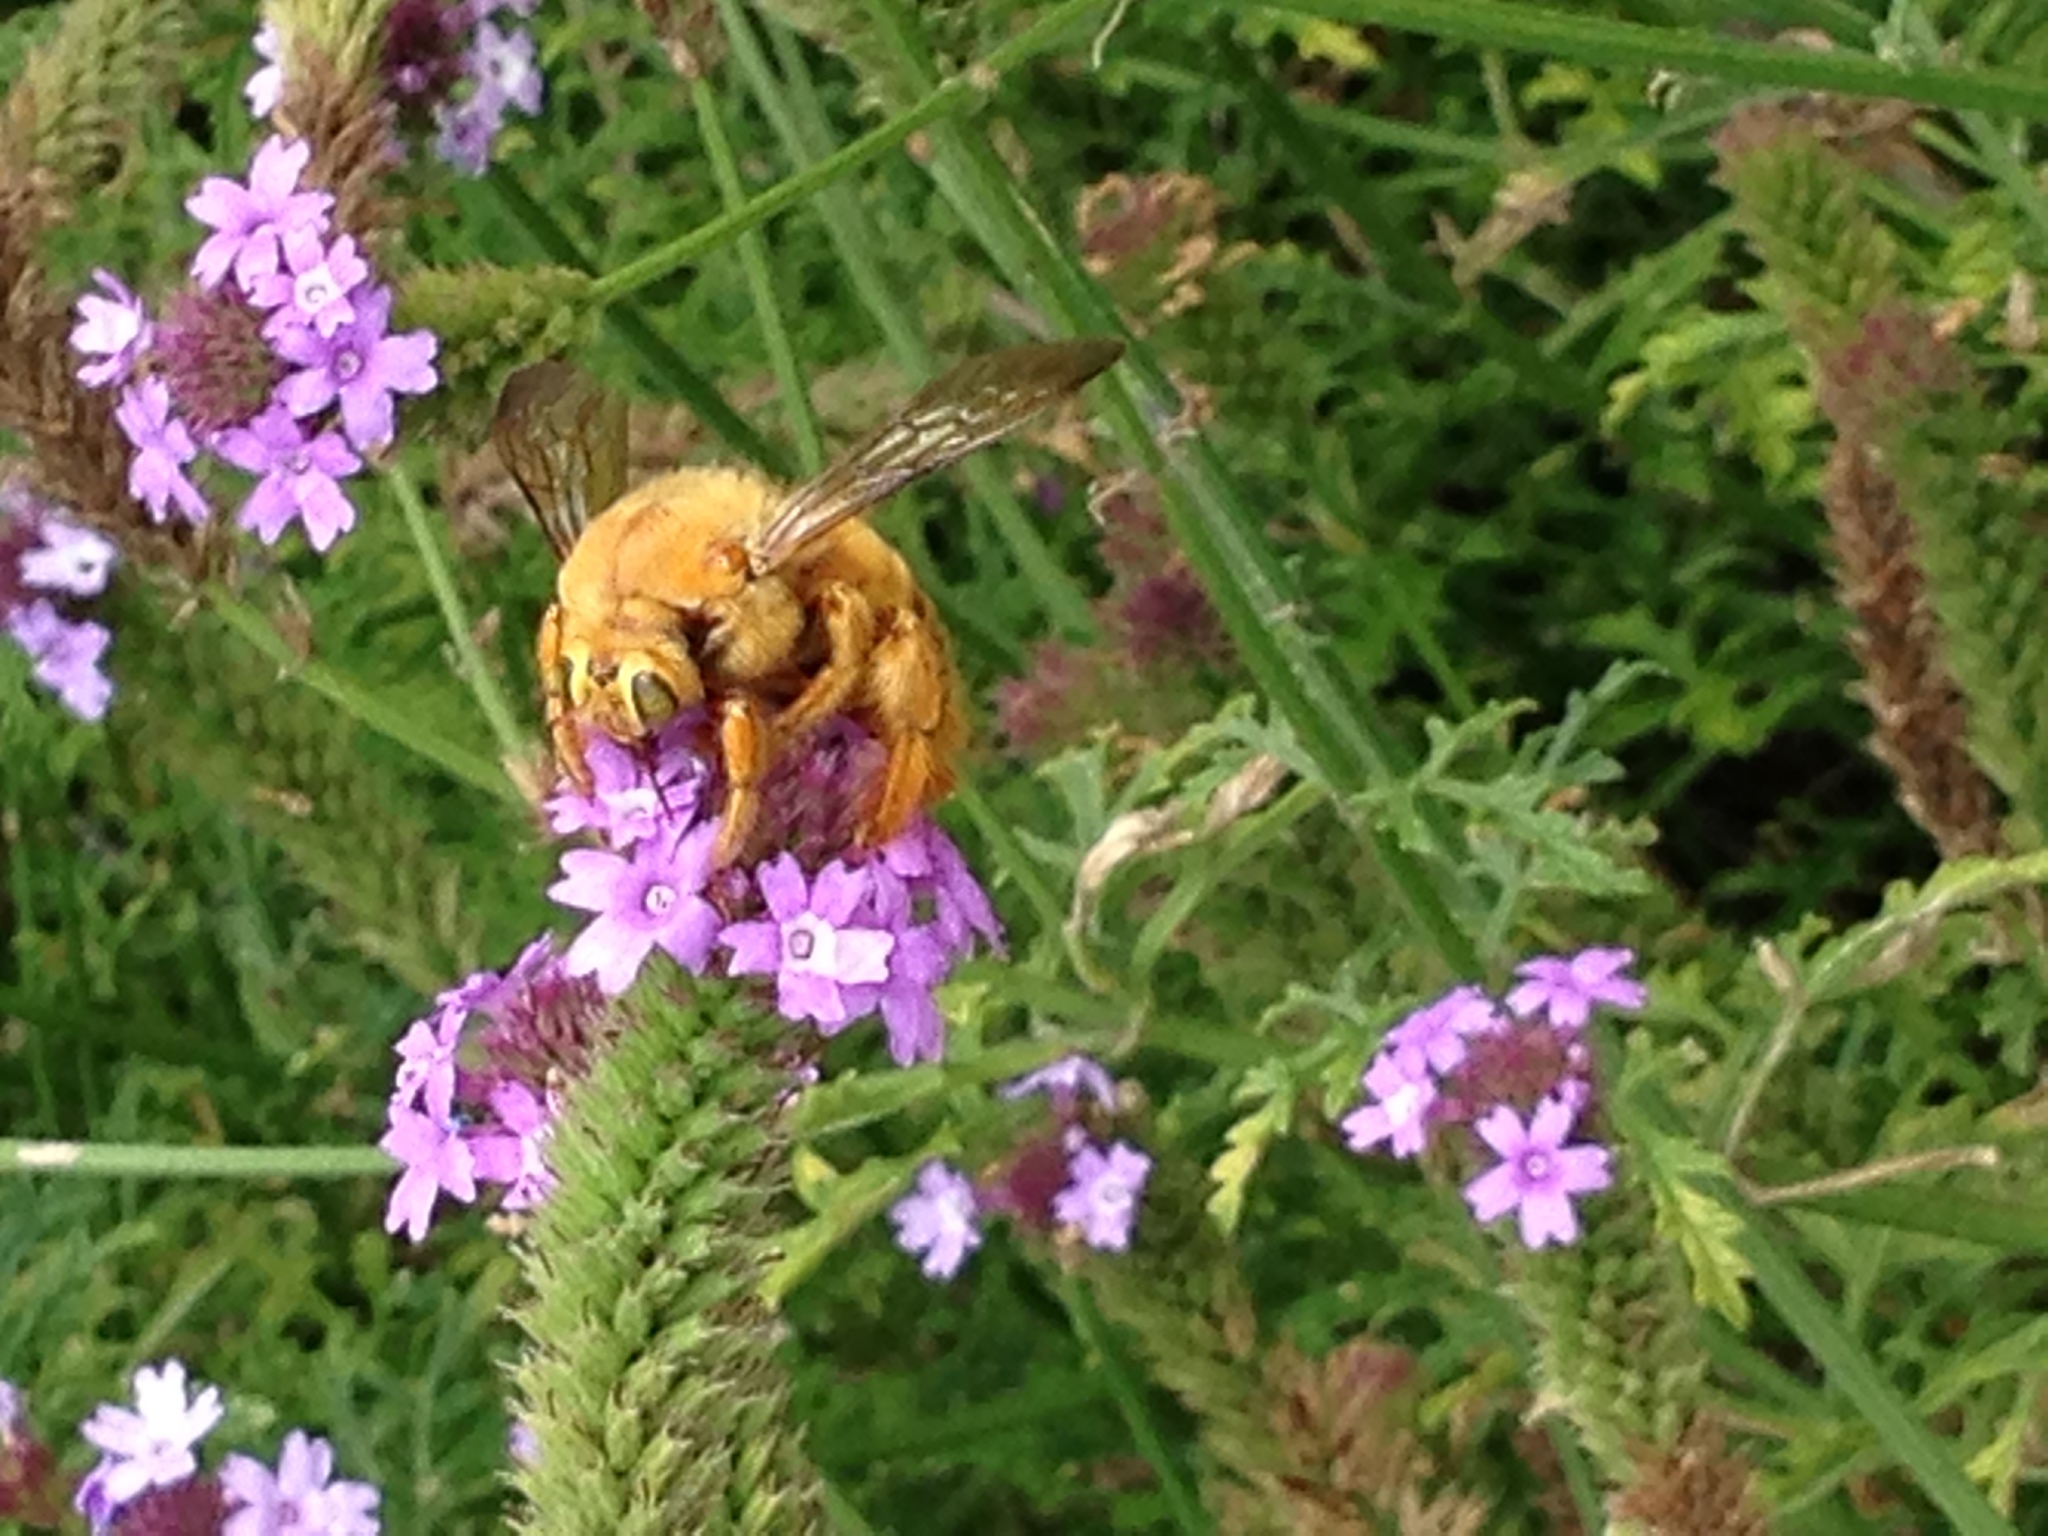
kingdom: Animalia
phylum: Arthropoda
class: Insecta
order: Hymenoptera
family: Apidae
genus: Xylocopa
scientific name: Xylocopa sonorina
